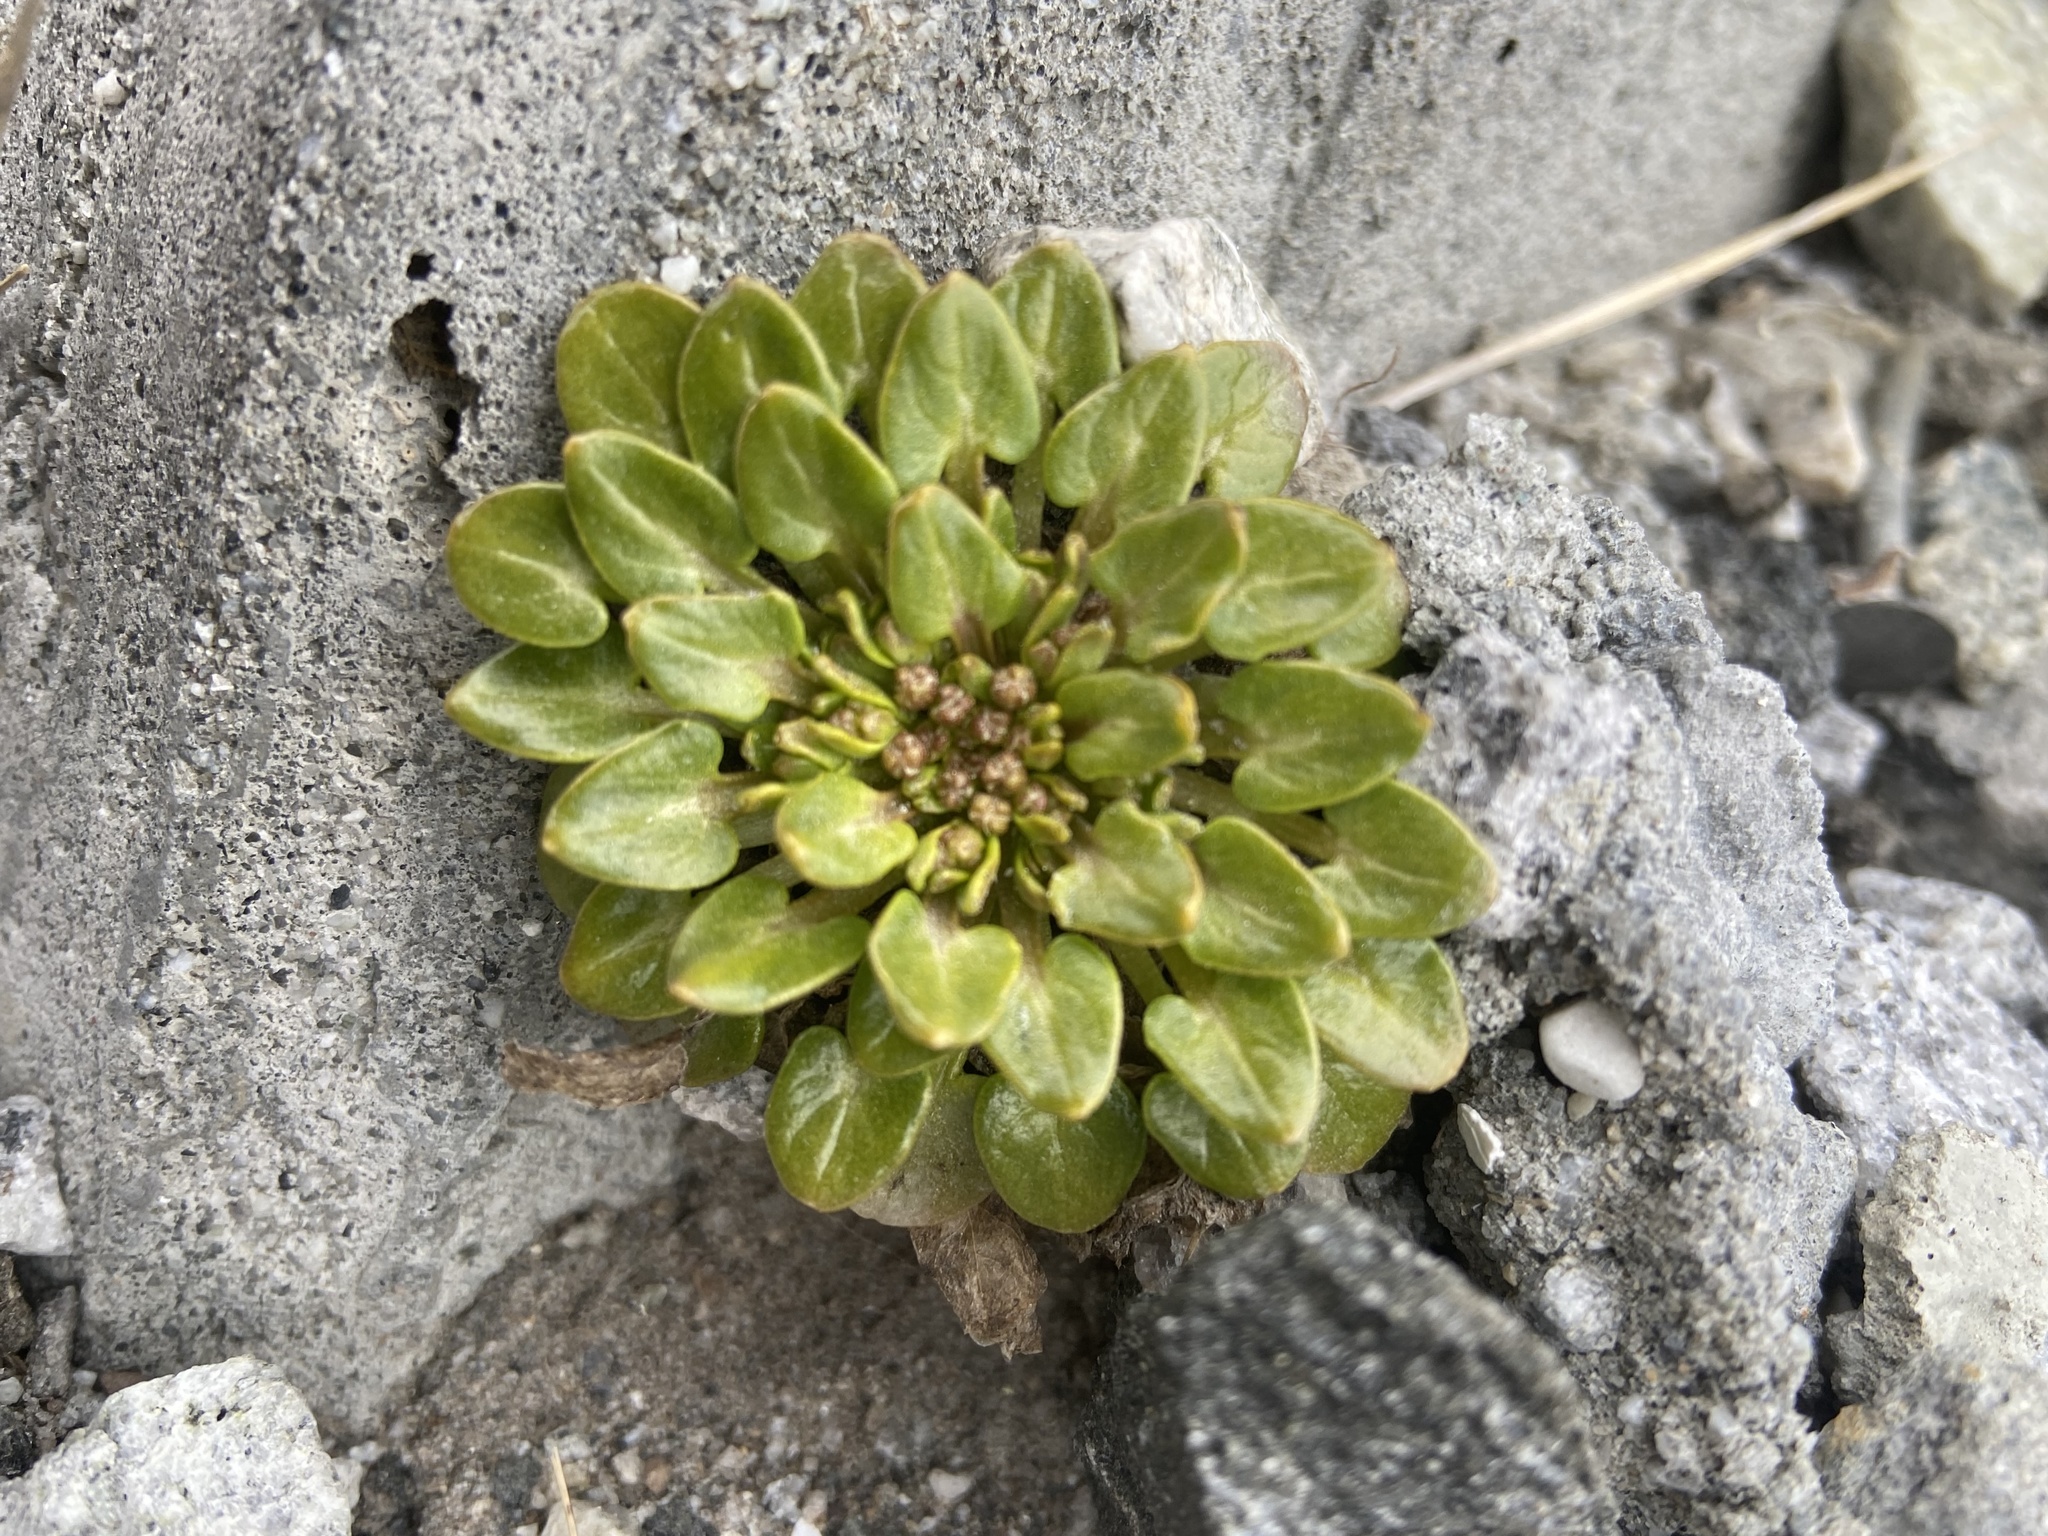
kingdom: Plantae
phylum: Tracheophyta
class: Magnoliopsida
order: Brassicales
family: Brassicaceae
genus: Cochlearia
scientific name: Cochlearia groenlandica
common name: Danish scurvygrass
